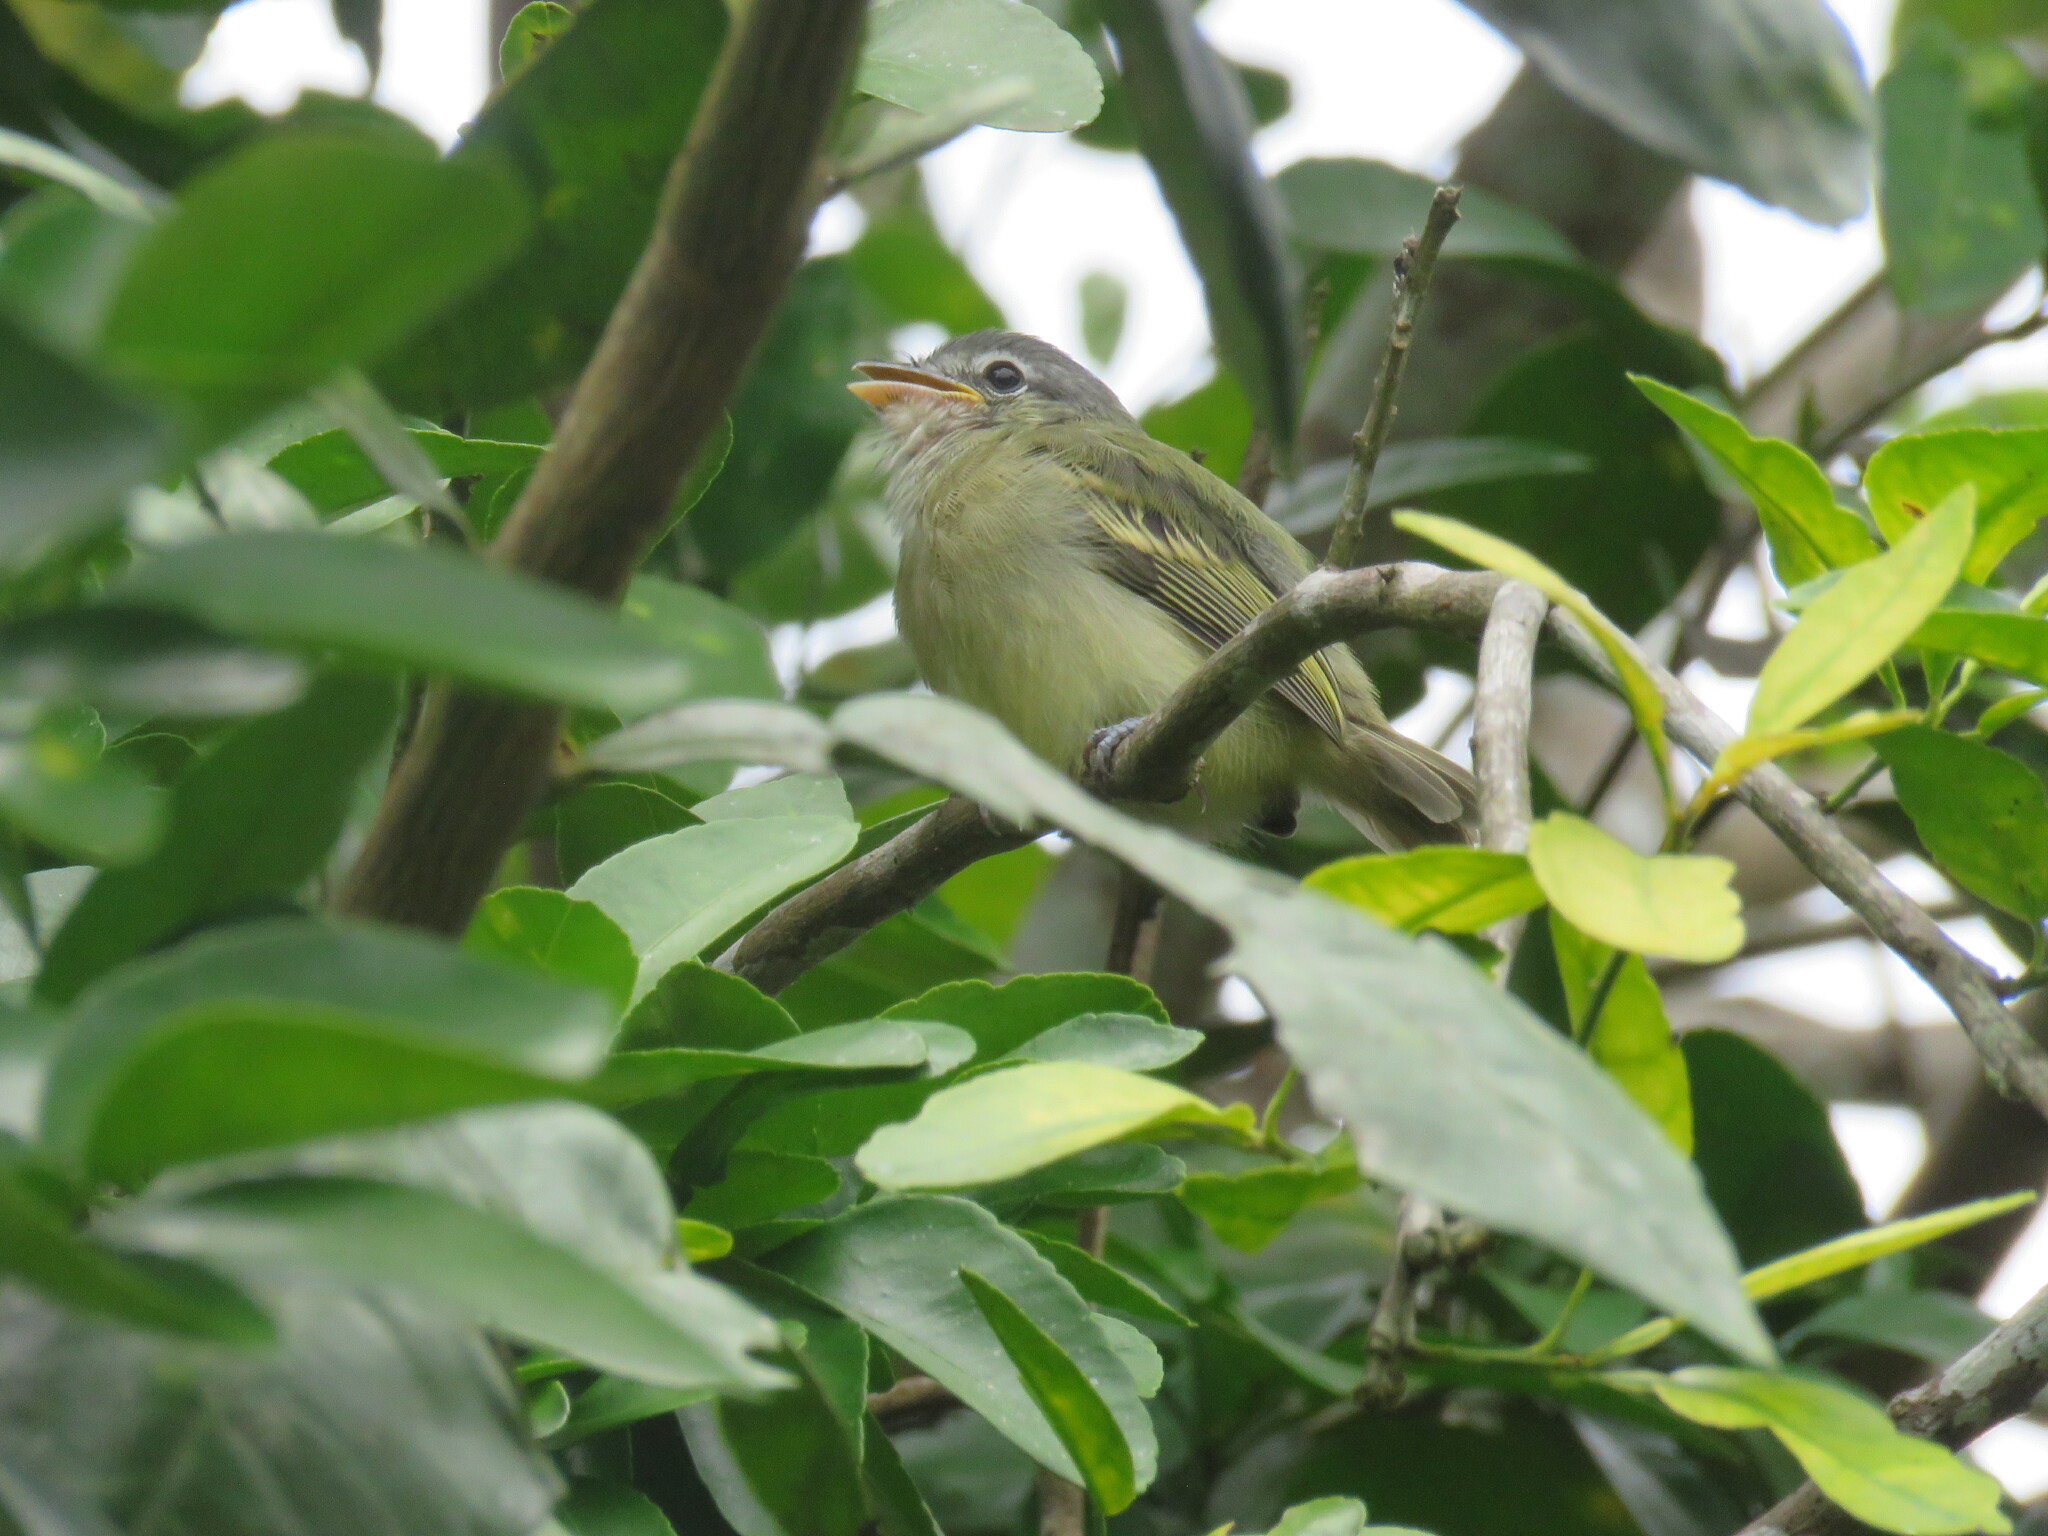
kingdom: Animalia
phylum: Chordata
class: Aves
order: Passeriformes
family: Tyrannidae
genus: Tolmomyias
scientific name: Tolmomyias sulphurescens
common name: Yellow-olive flycatcher
